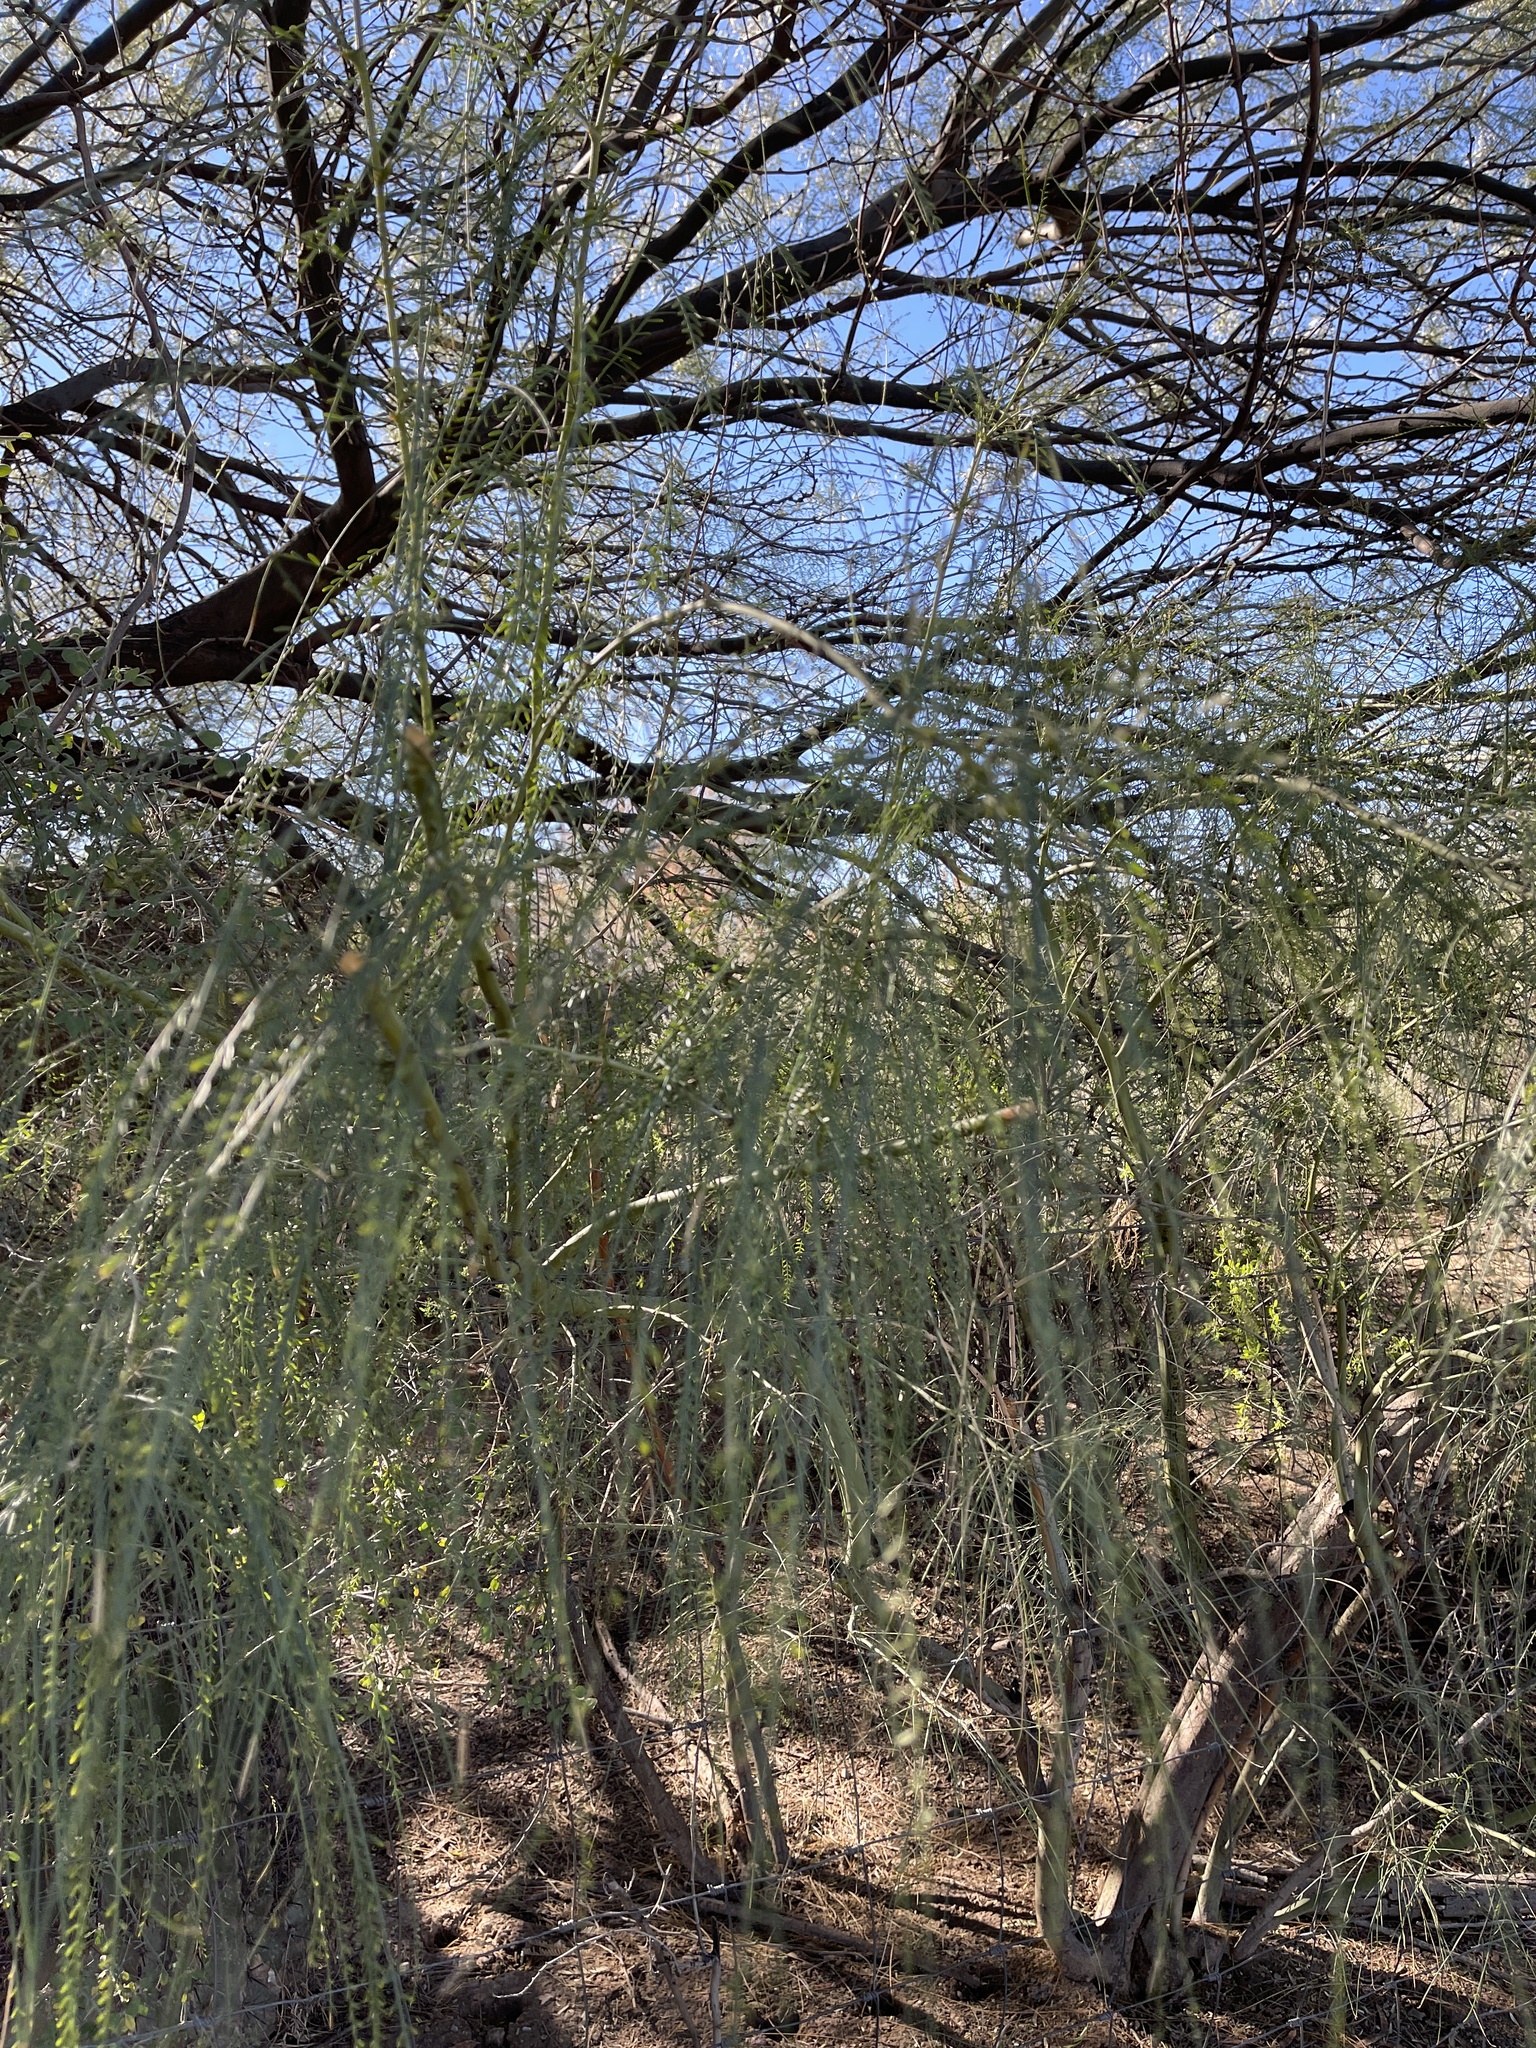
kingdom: Plantae
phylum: Tracheophyta
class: Magnoliopsida
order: Fabales
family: Fabaceae
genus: Parkinsonia
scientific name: Parkinsonia aculeata
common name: Jerusalem thorn
